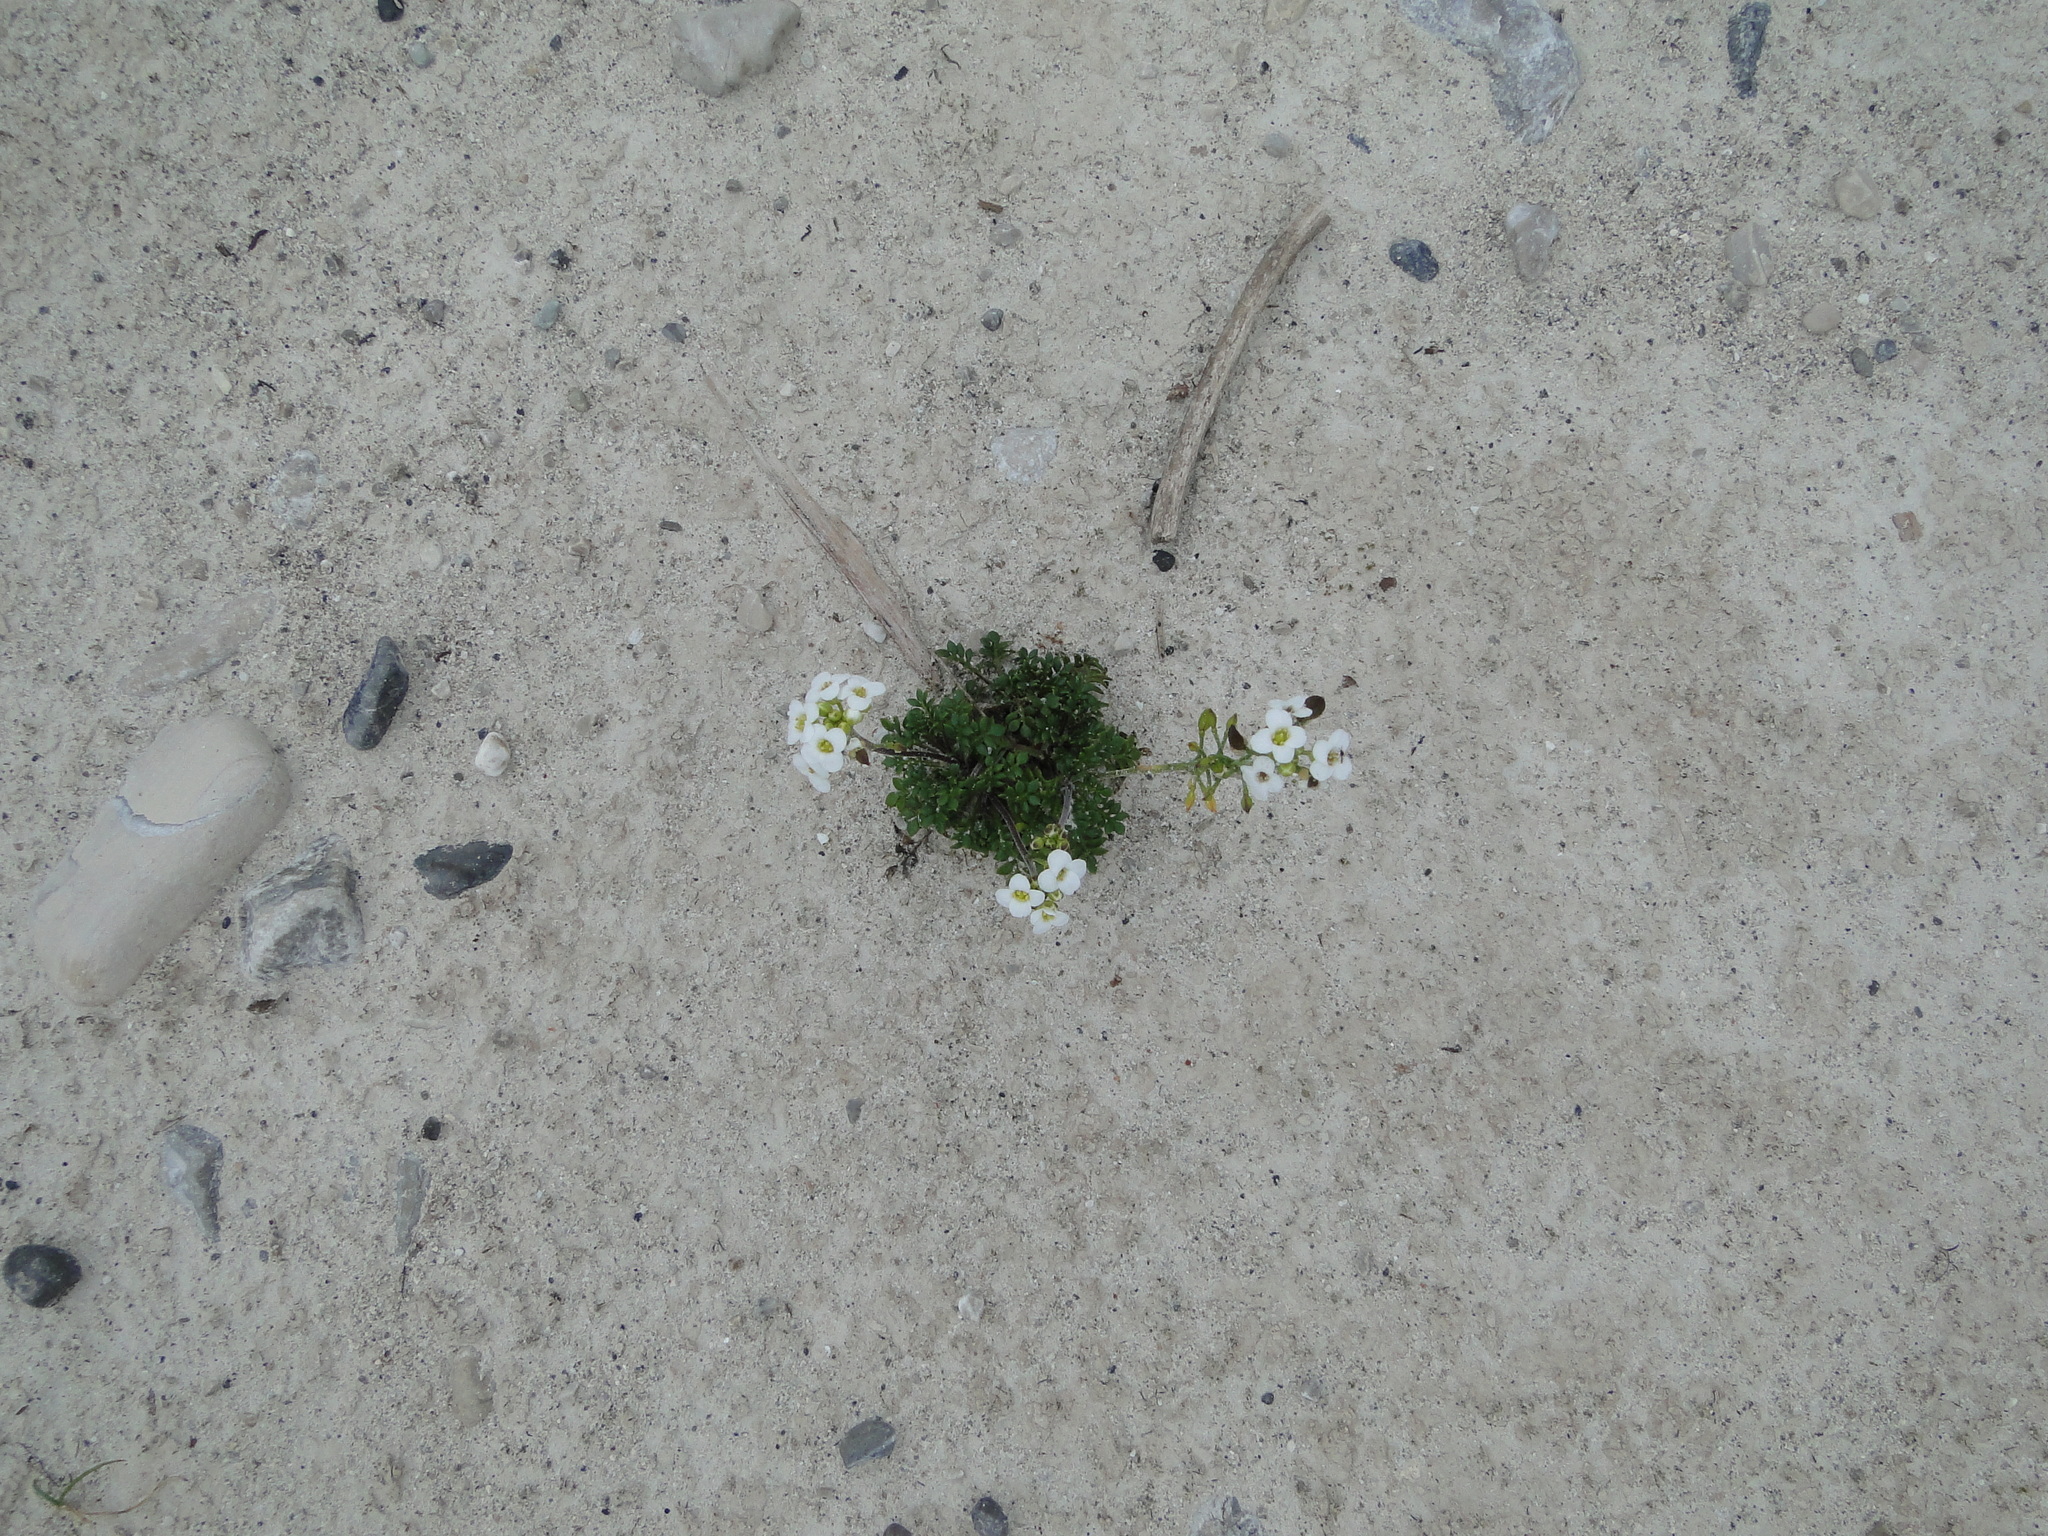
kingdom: Plantae
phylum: Tracheophyta
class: Magnoliopsida
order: Brassicales
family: Brassicaceae
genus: Hornungia
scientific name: Hornungia alpina
